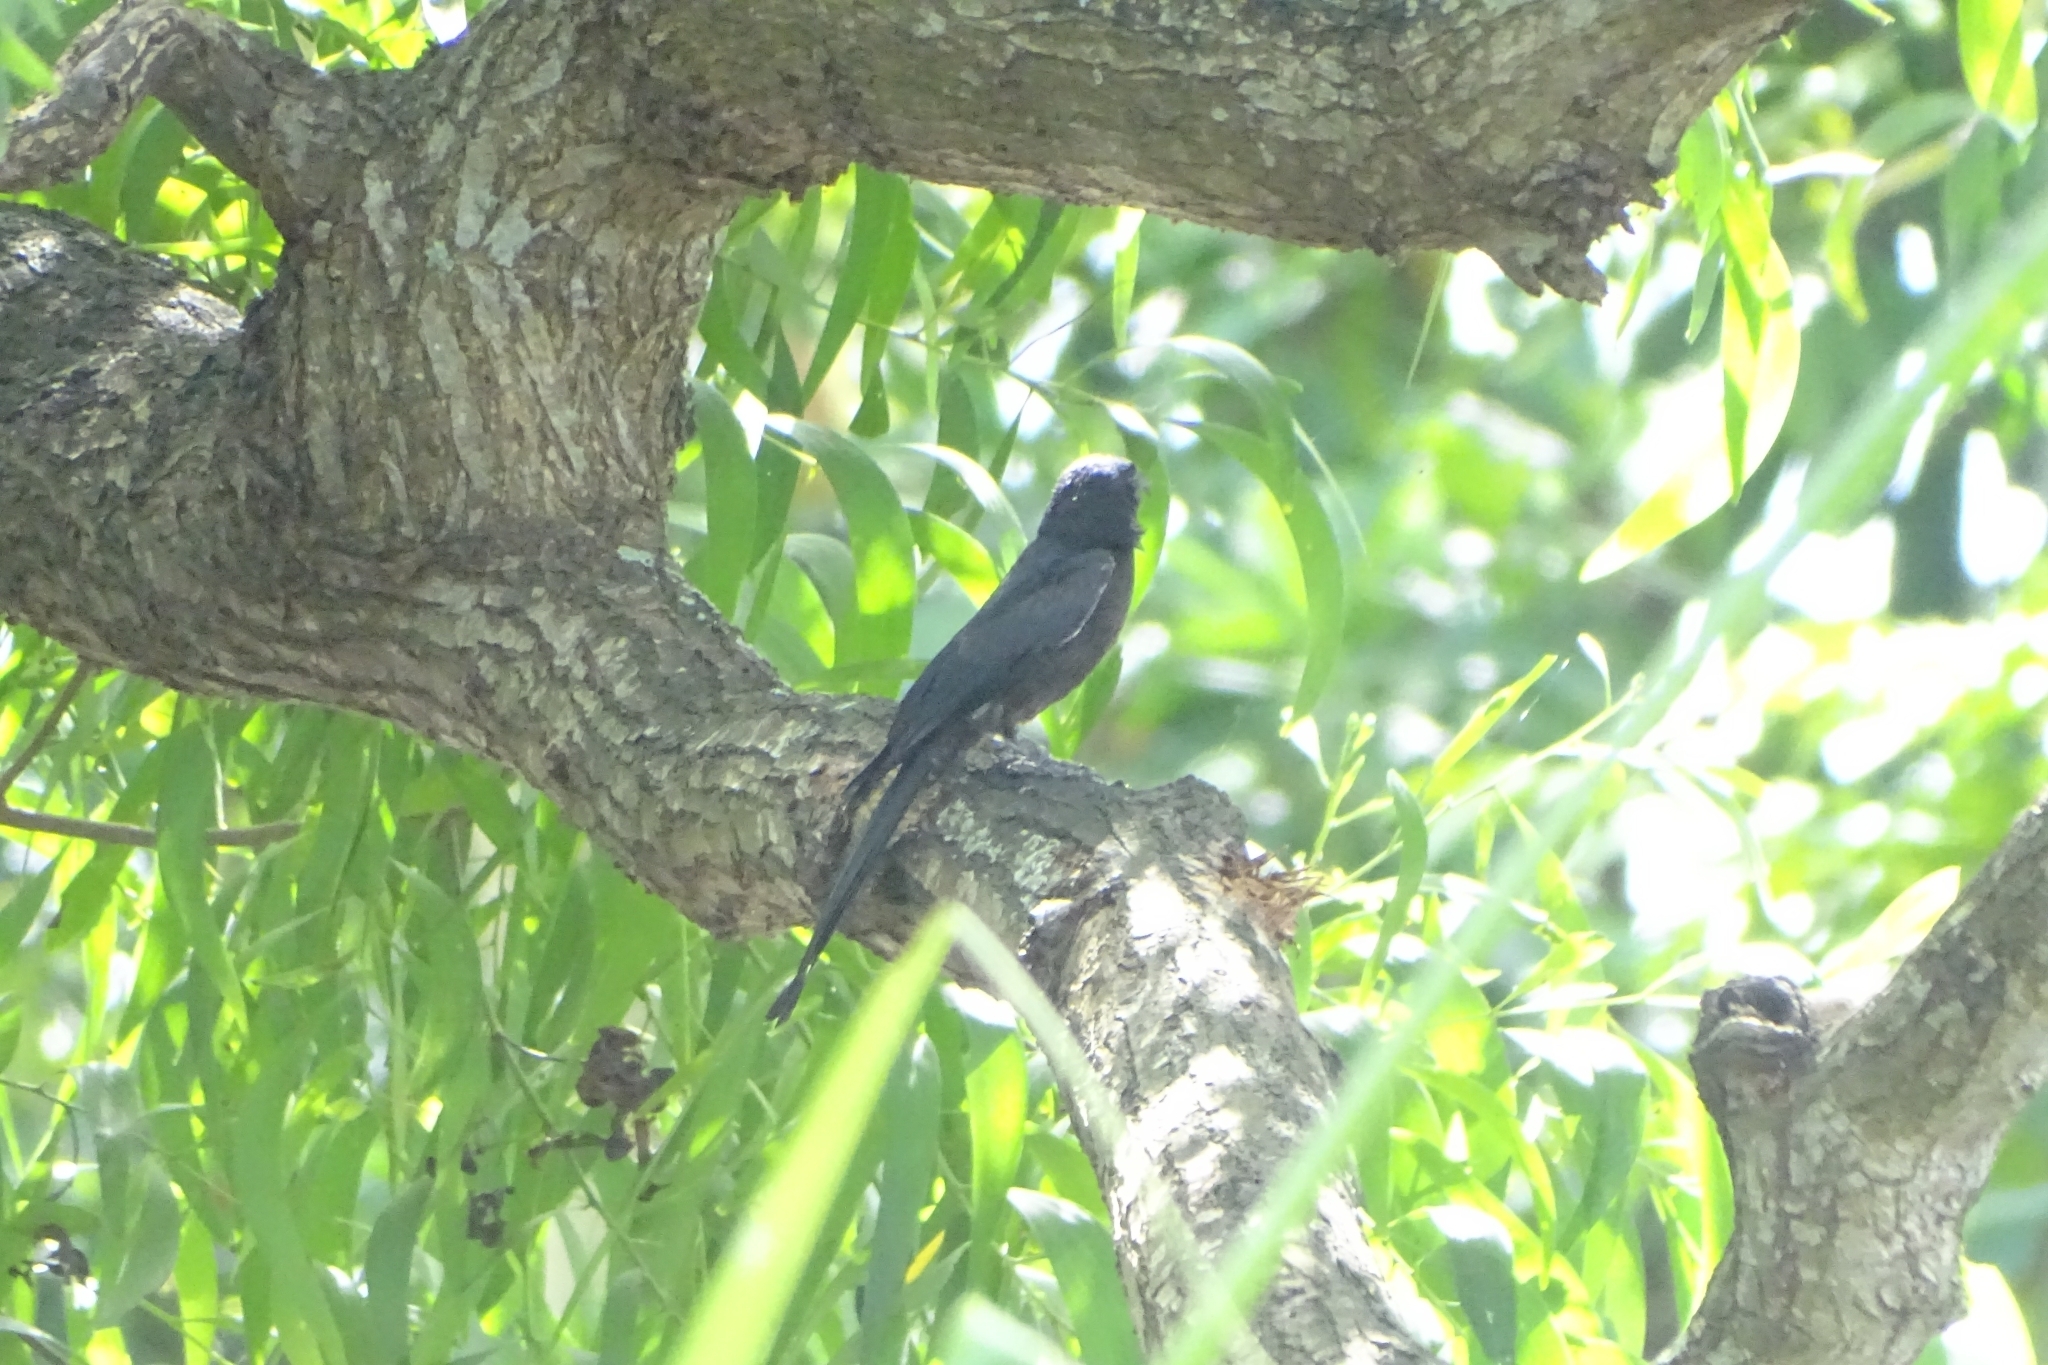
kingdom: Animalia
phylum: Chordata
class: Aves
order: Passeriformes
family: Dicruridae
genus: Dicrurus
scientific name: Dicrurus macrocercus
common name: Black drongo
